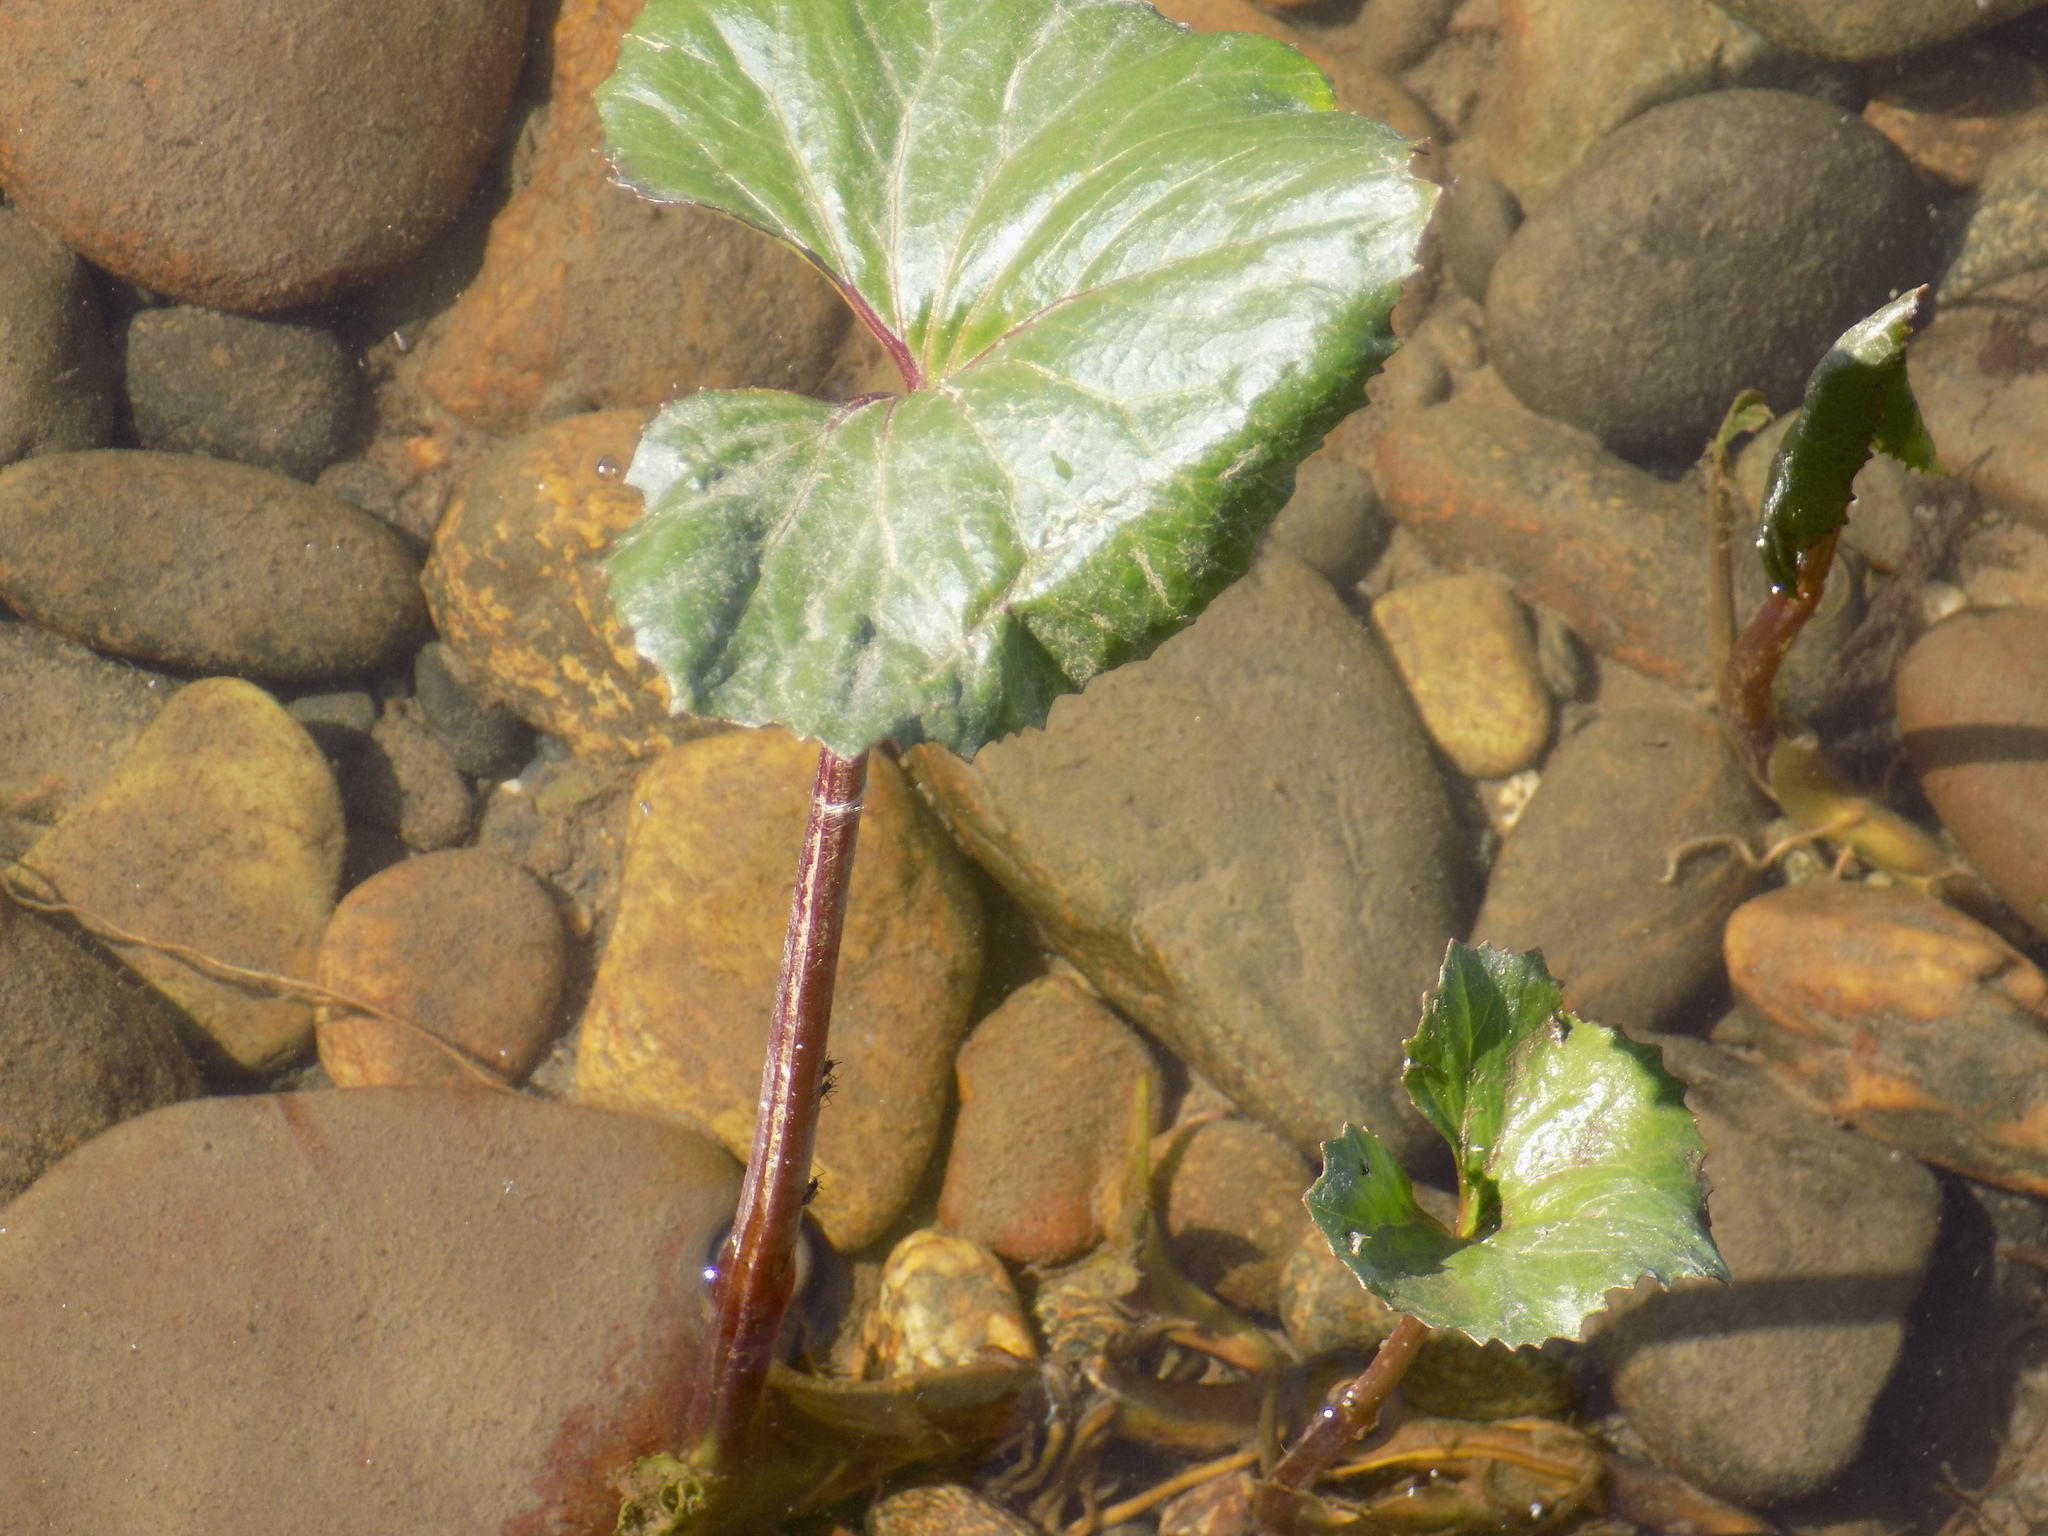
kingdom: Plantae
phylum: Tracheophyta
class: Magnoliopsida
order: Asterales
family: Asteraceae
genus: Petasites
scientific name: Petasites radiatus
